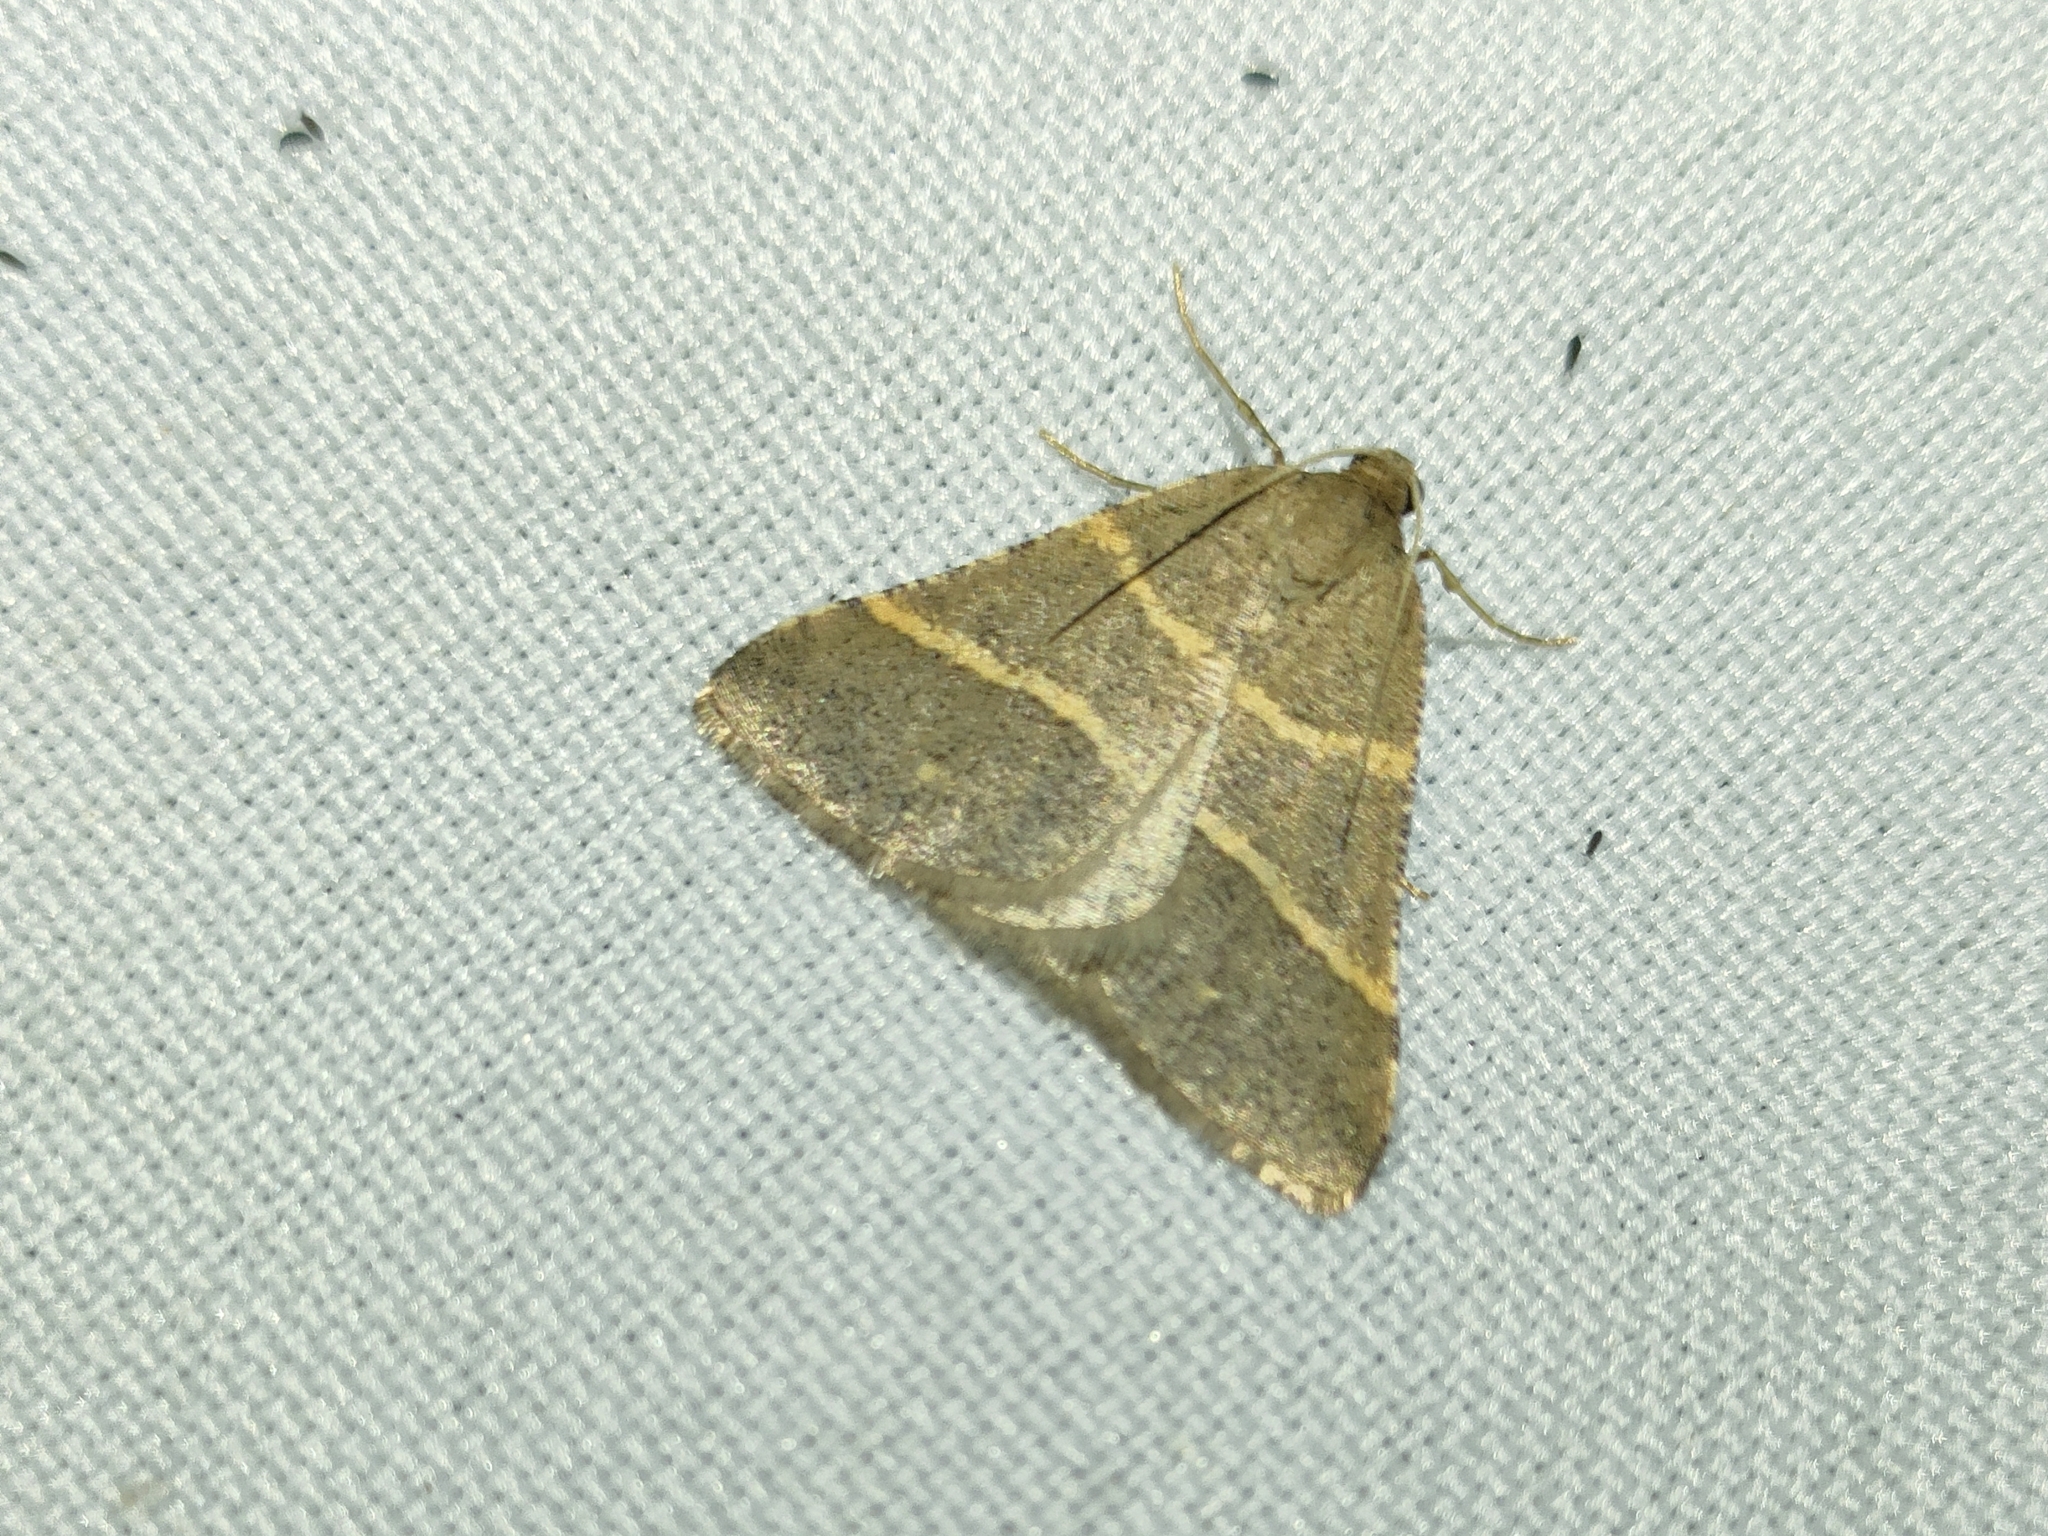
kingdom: Animalia
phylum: Arthropoda
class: Insecta
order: Lepidoptera
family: Pterophoridae
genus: Pterophorus
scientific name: Pterophorus Petrophora narbonea
